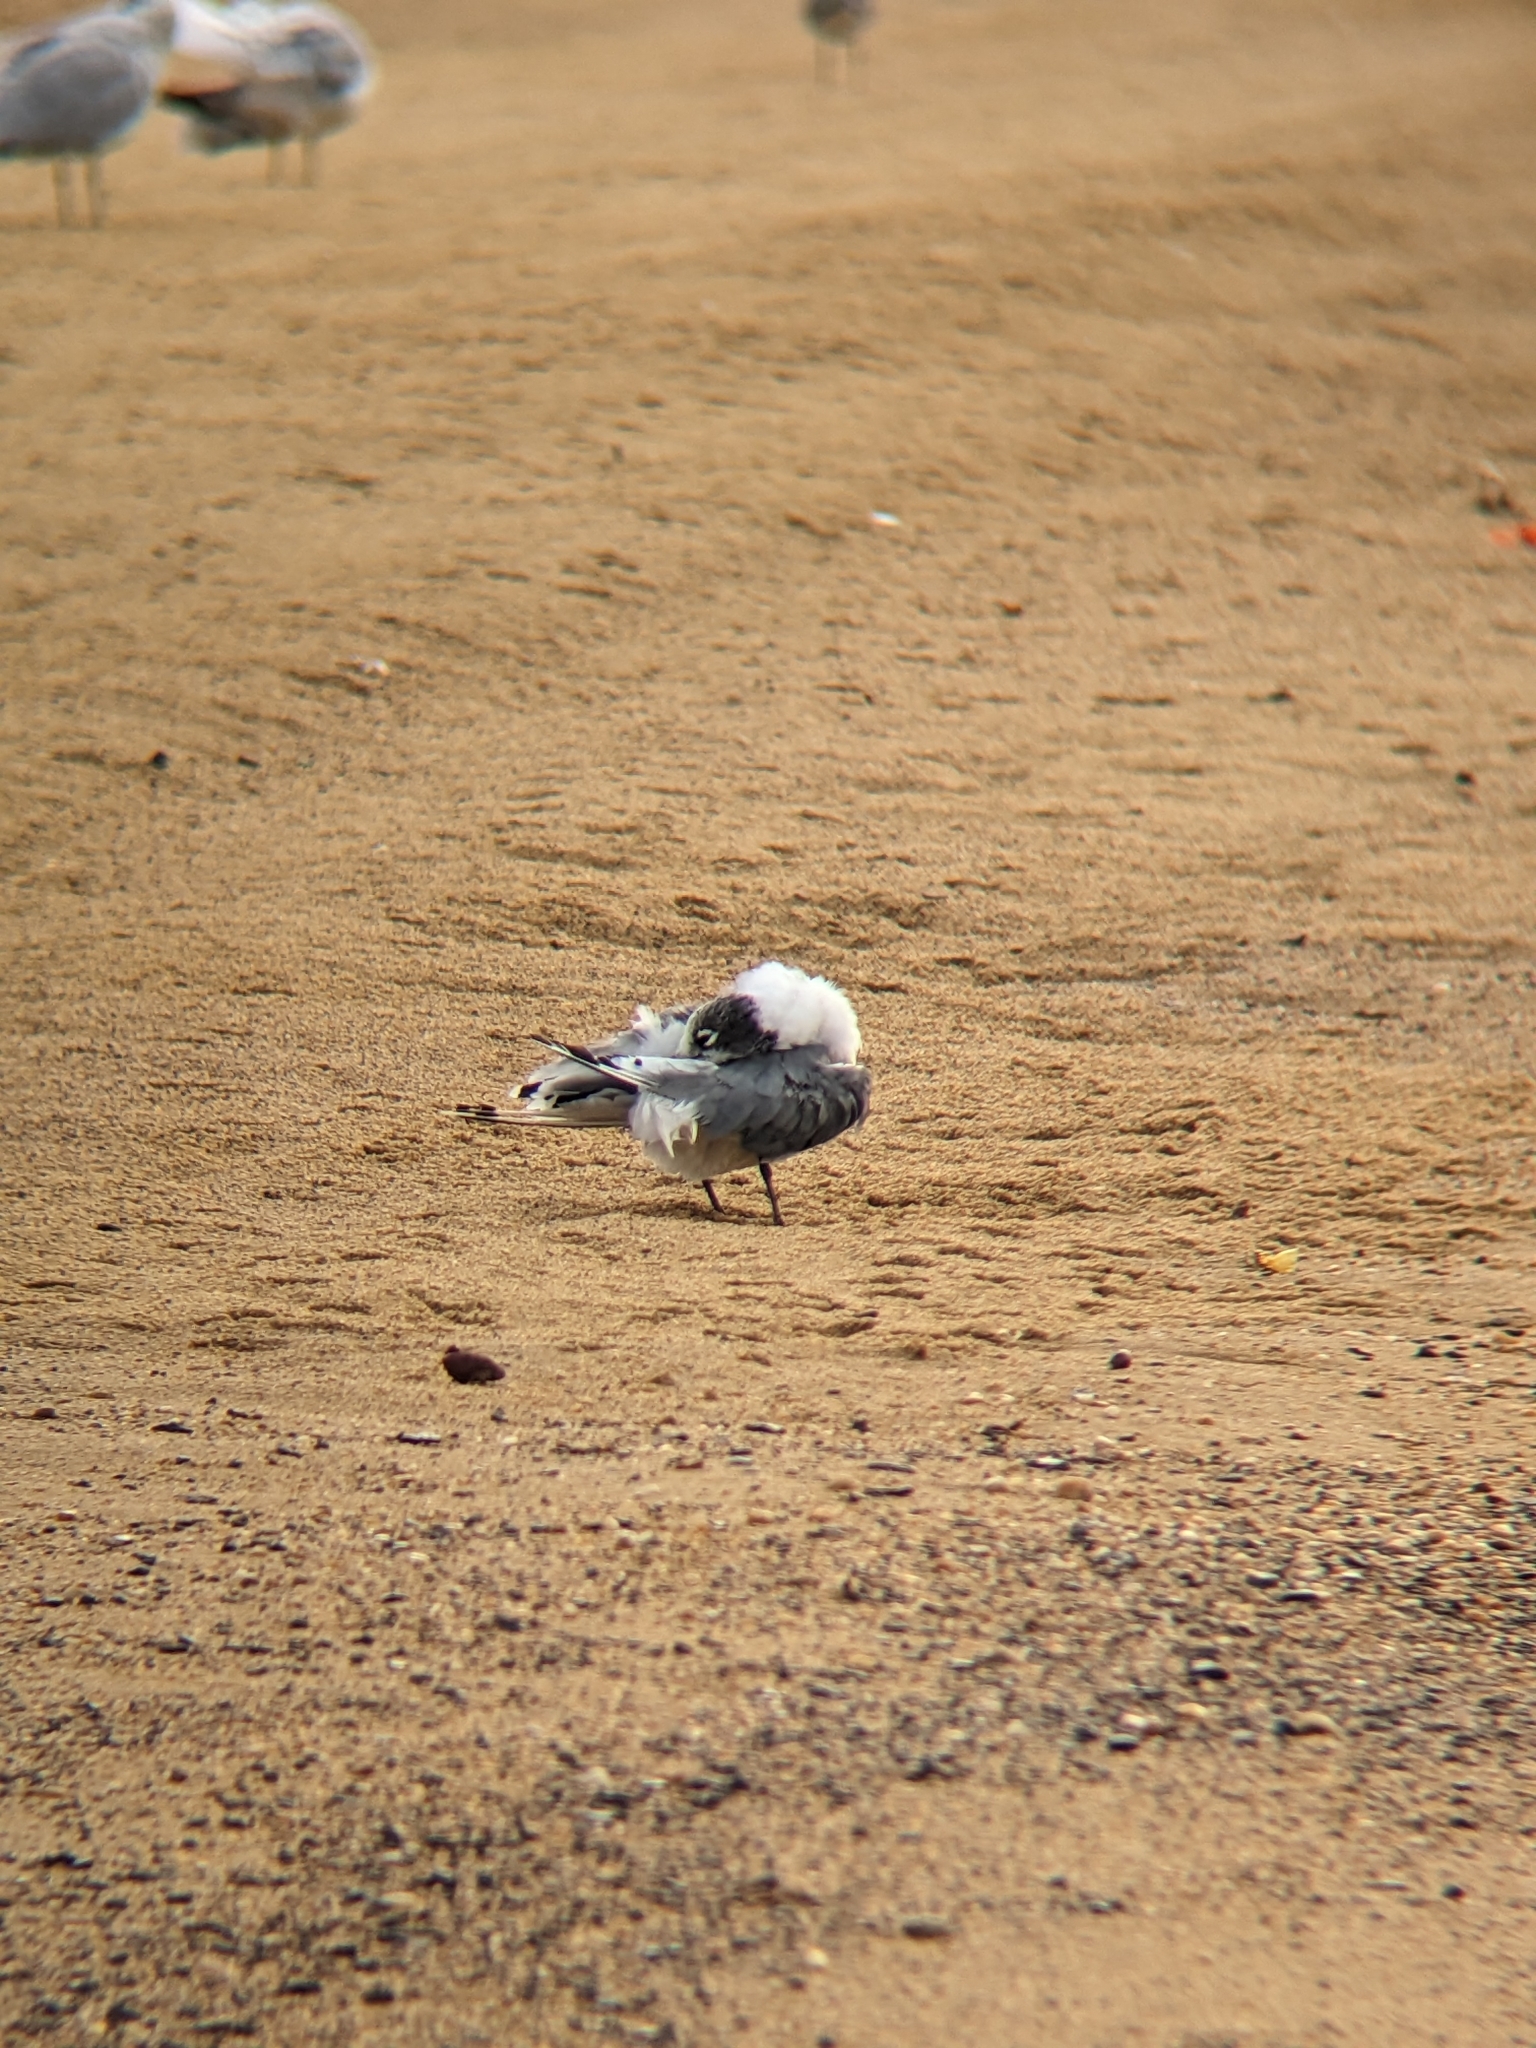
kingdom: Animalia
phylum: Chordata
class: Aves
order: Charadriiformes
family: Laridae
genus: Leucophaeus
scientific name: Leucophaeus pipixcan
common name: Franklin's gull
